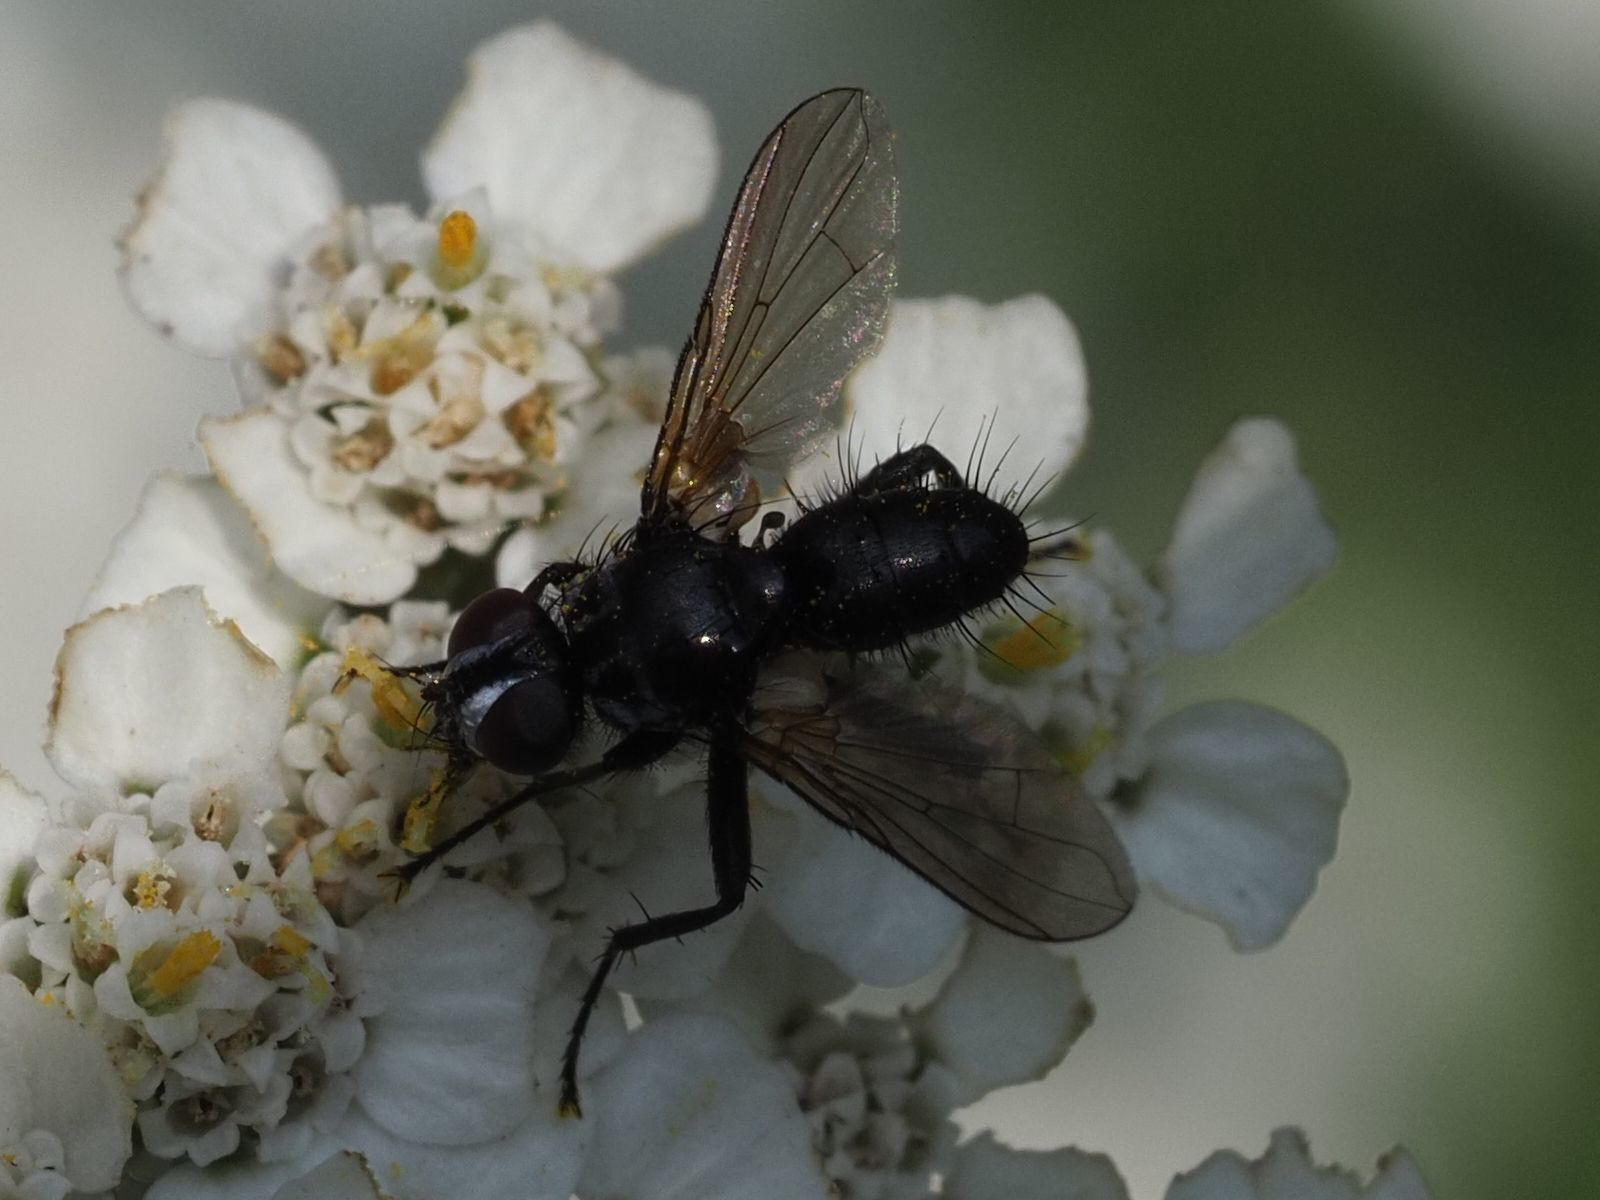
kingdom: Animalia
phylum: Arthropoda
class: Insecta
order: Diptera
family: Tachinidae
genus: Phania
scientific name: Phania funesta
